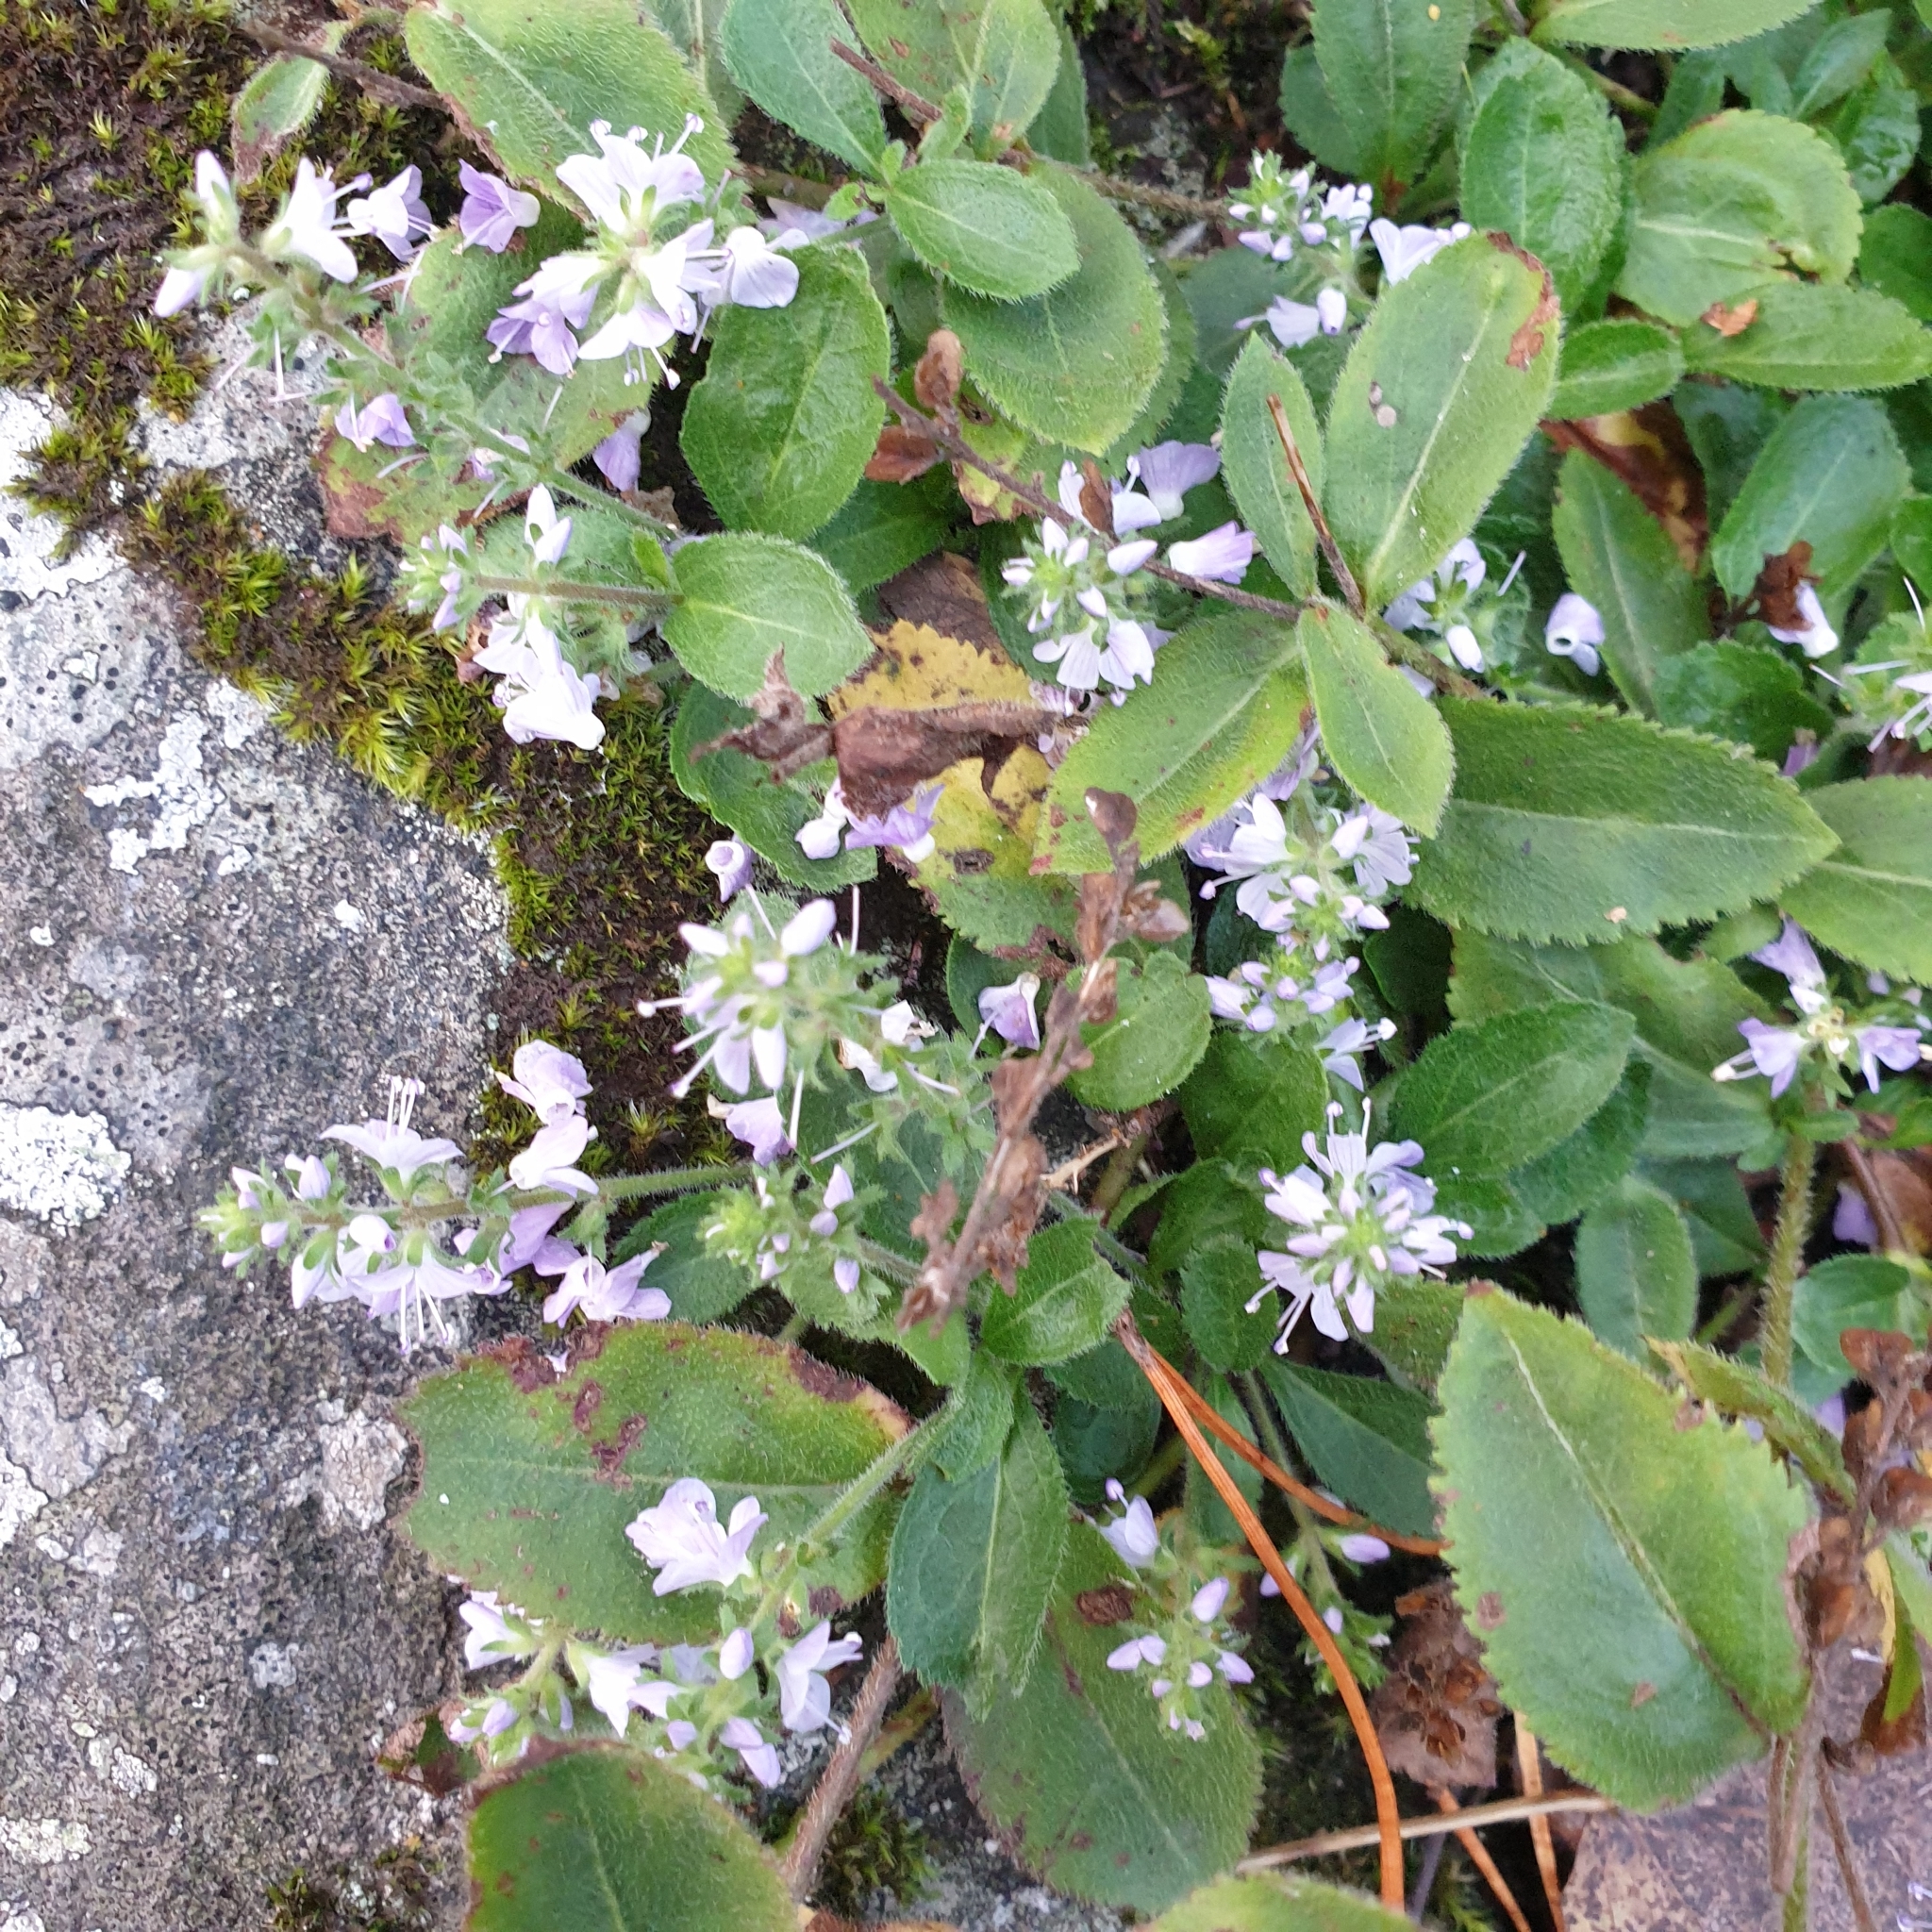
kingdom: Plantae
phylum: Tracheophyta
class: Magnoliopsida
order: Lamiales
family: Plantaginaceae
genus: Veronica
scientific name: Veronica officinalis
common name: Common speedwell
